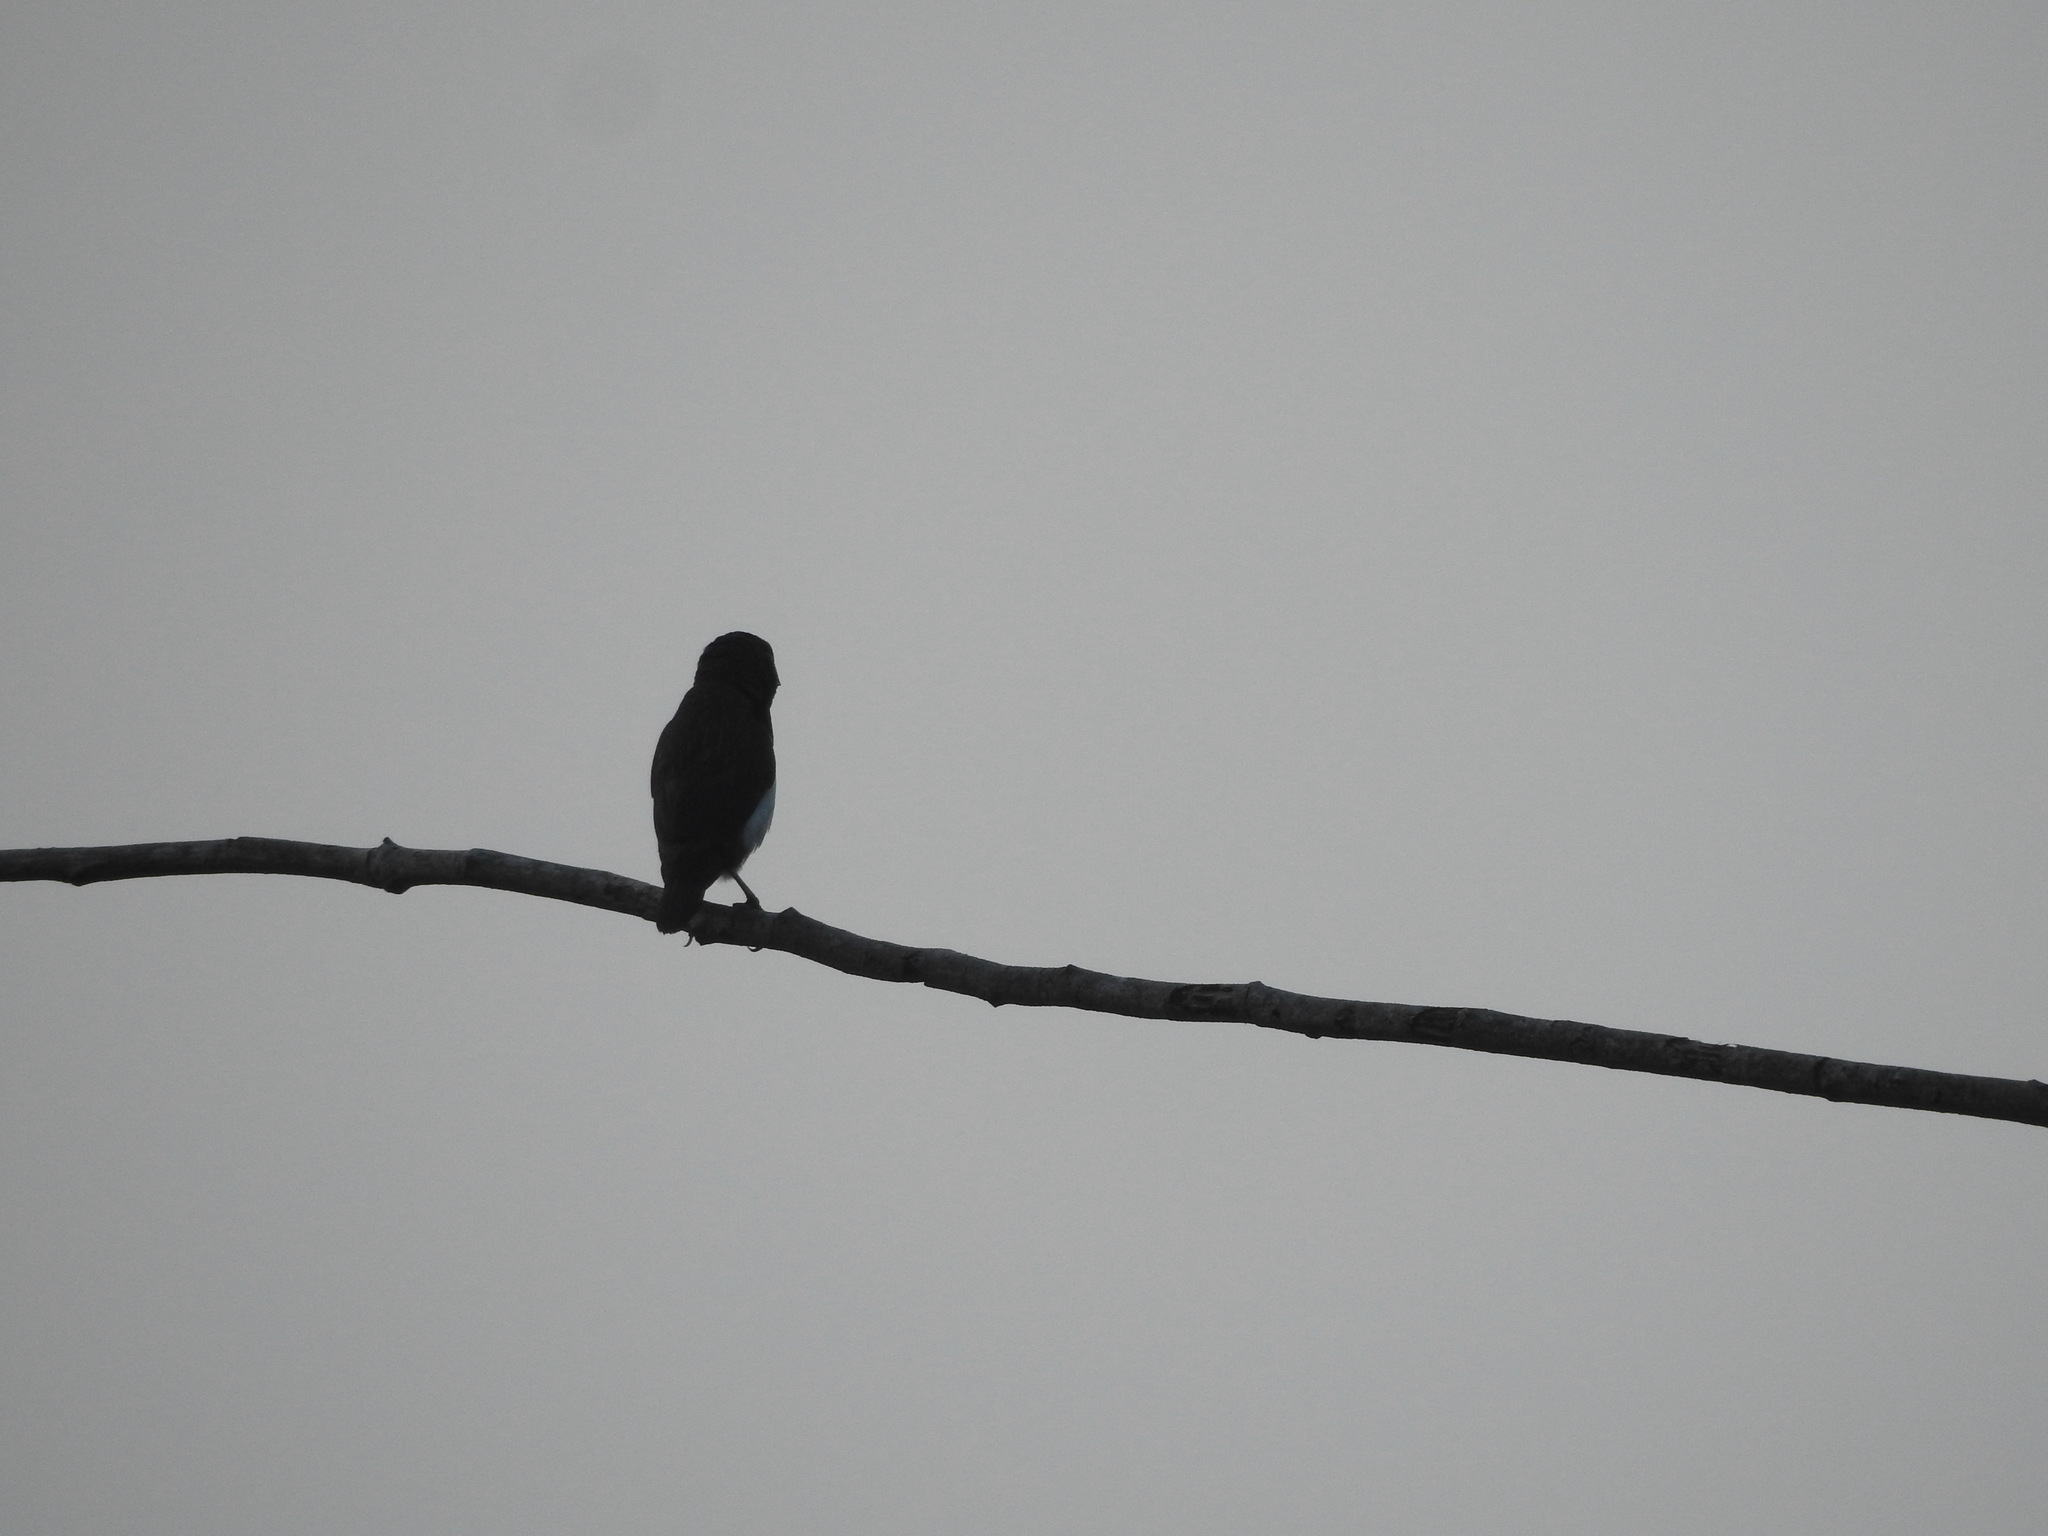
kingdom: Animalia
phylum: Chordata
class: Aves
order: Piciformes
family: Megalaimidae
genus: Psilopogon
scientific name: Psilopogon haemacephalus
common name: Coppersmith barbet
